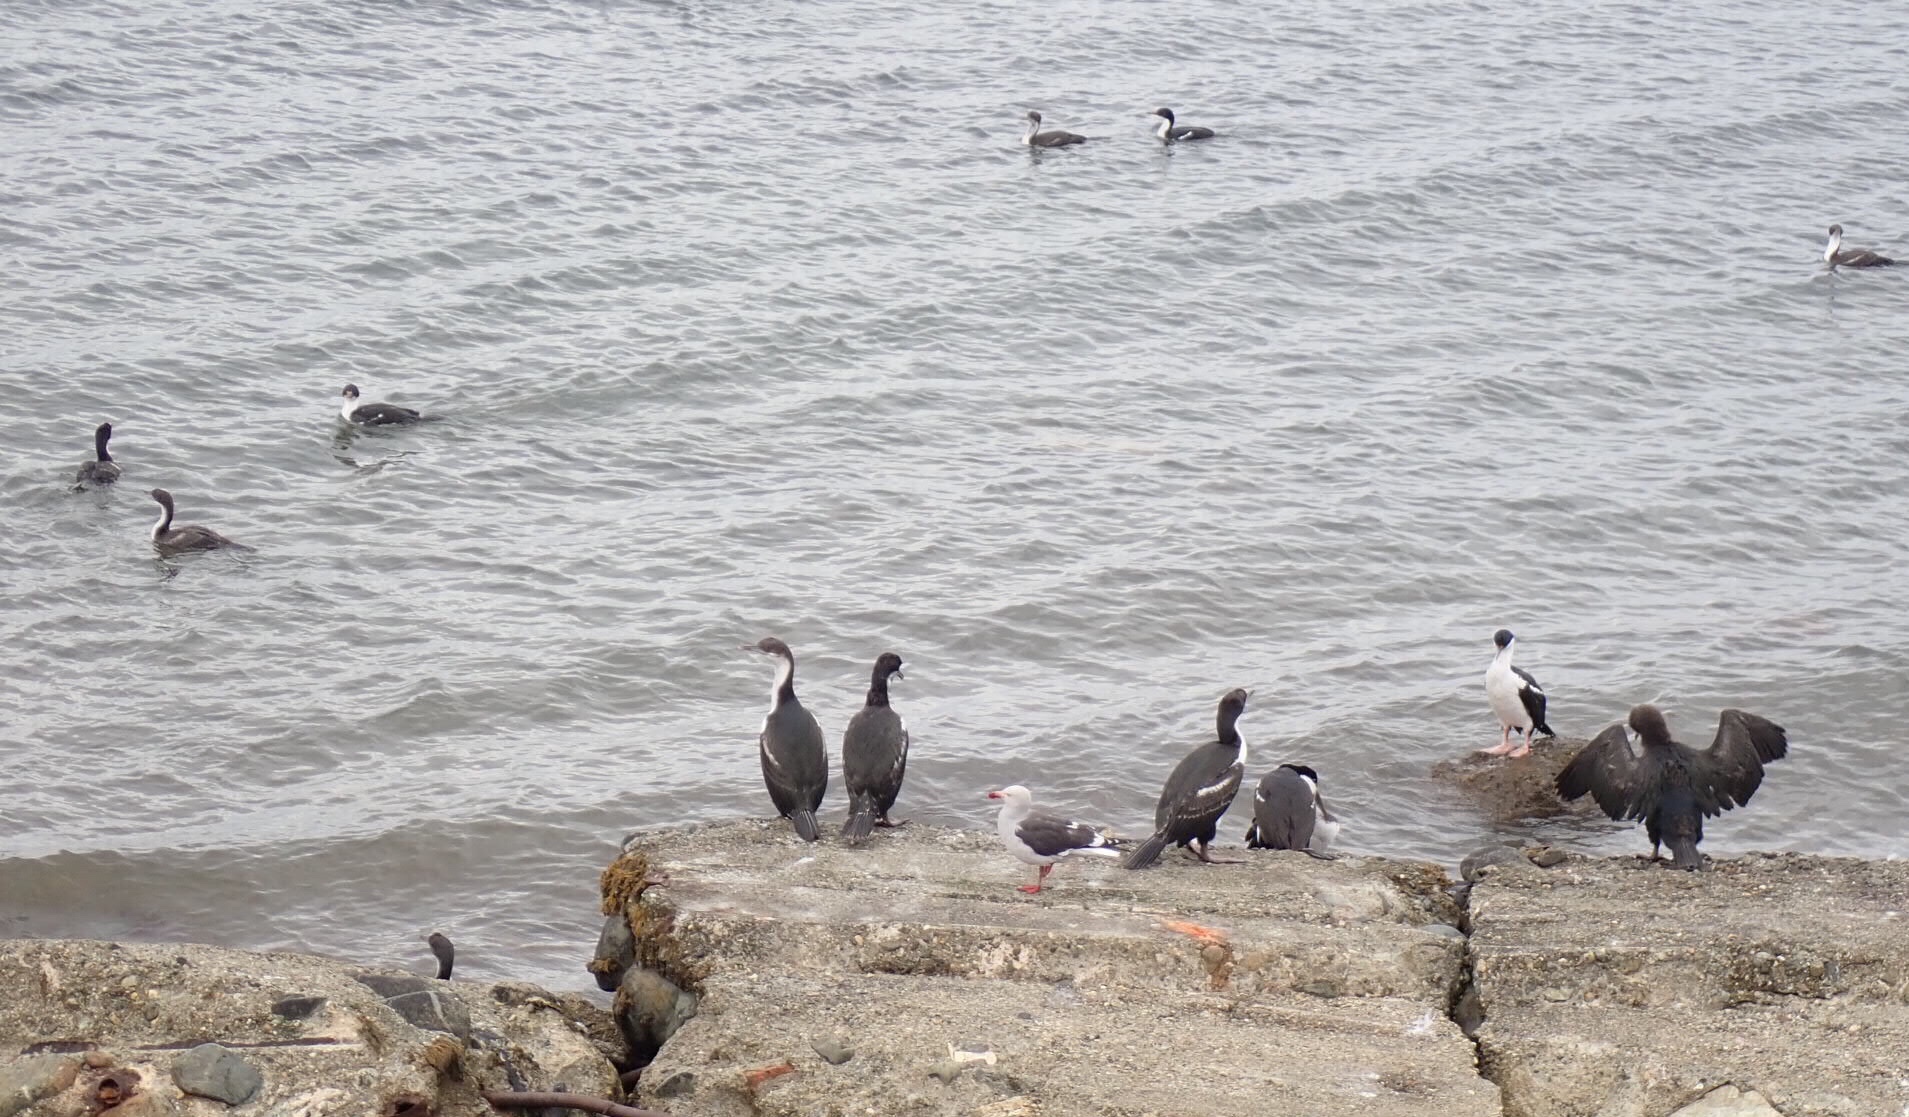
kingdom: Animalia
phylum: Chordata
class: Aves
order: Suliformes
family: Phalacrocoracidae
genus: Leucocarbo
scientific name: Leucocarbo atriceps
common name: Imperial shag
